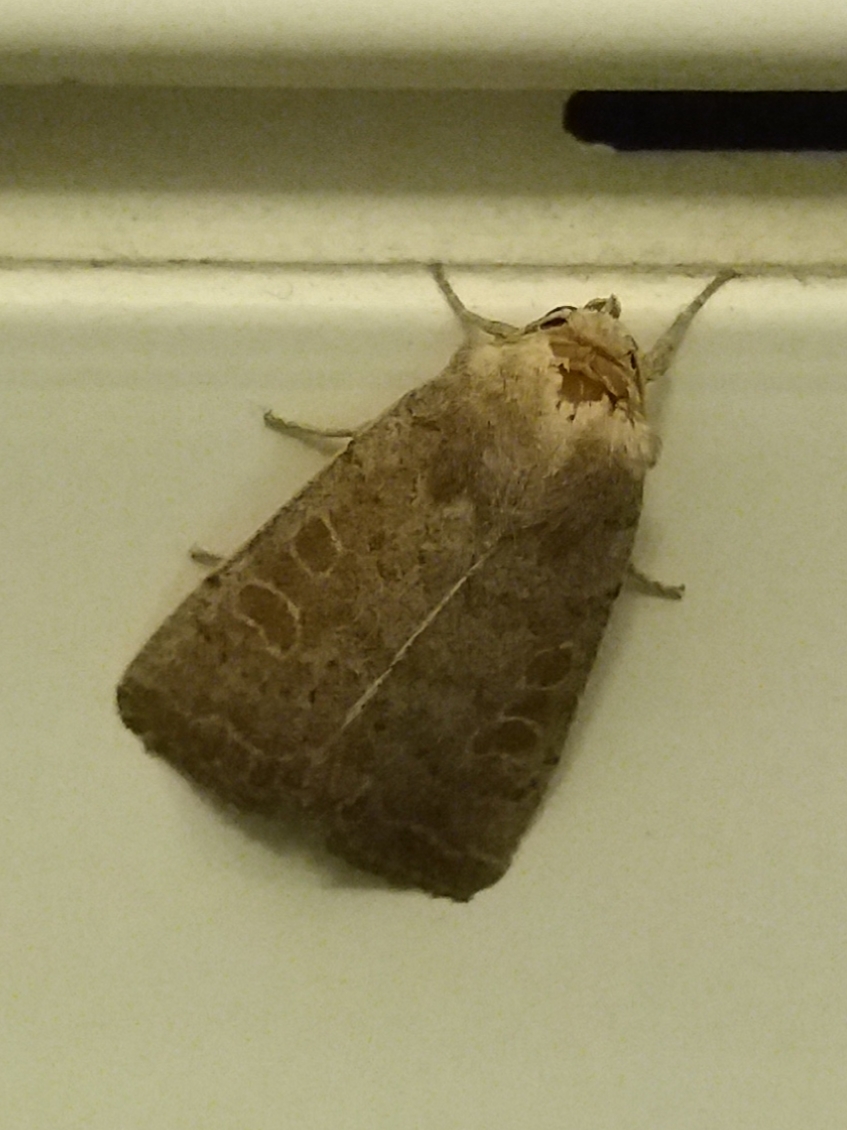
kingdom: Animalia
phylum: Arthropoda
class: Insecta
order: Lepidoptera
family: Noctuidae
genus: Hoplodrina
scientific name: Hoplodrina ambigua
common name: Vine's rustic
